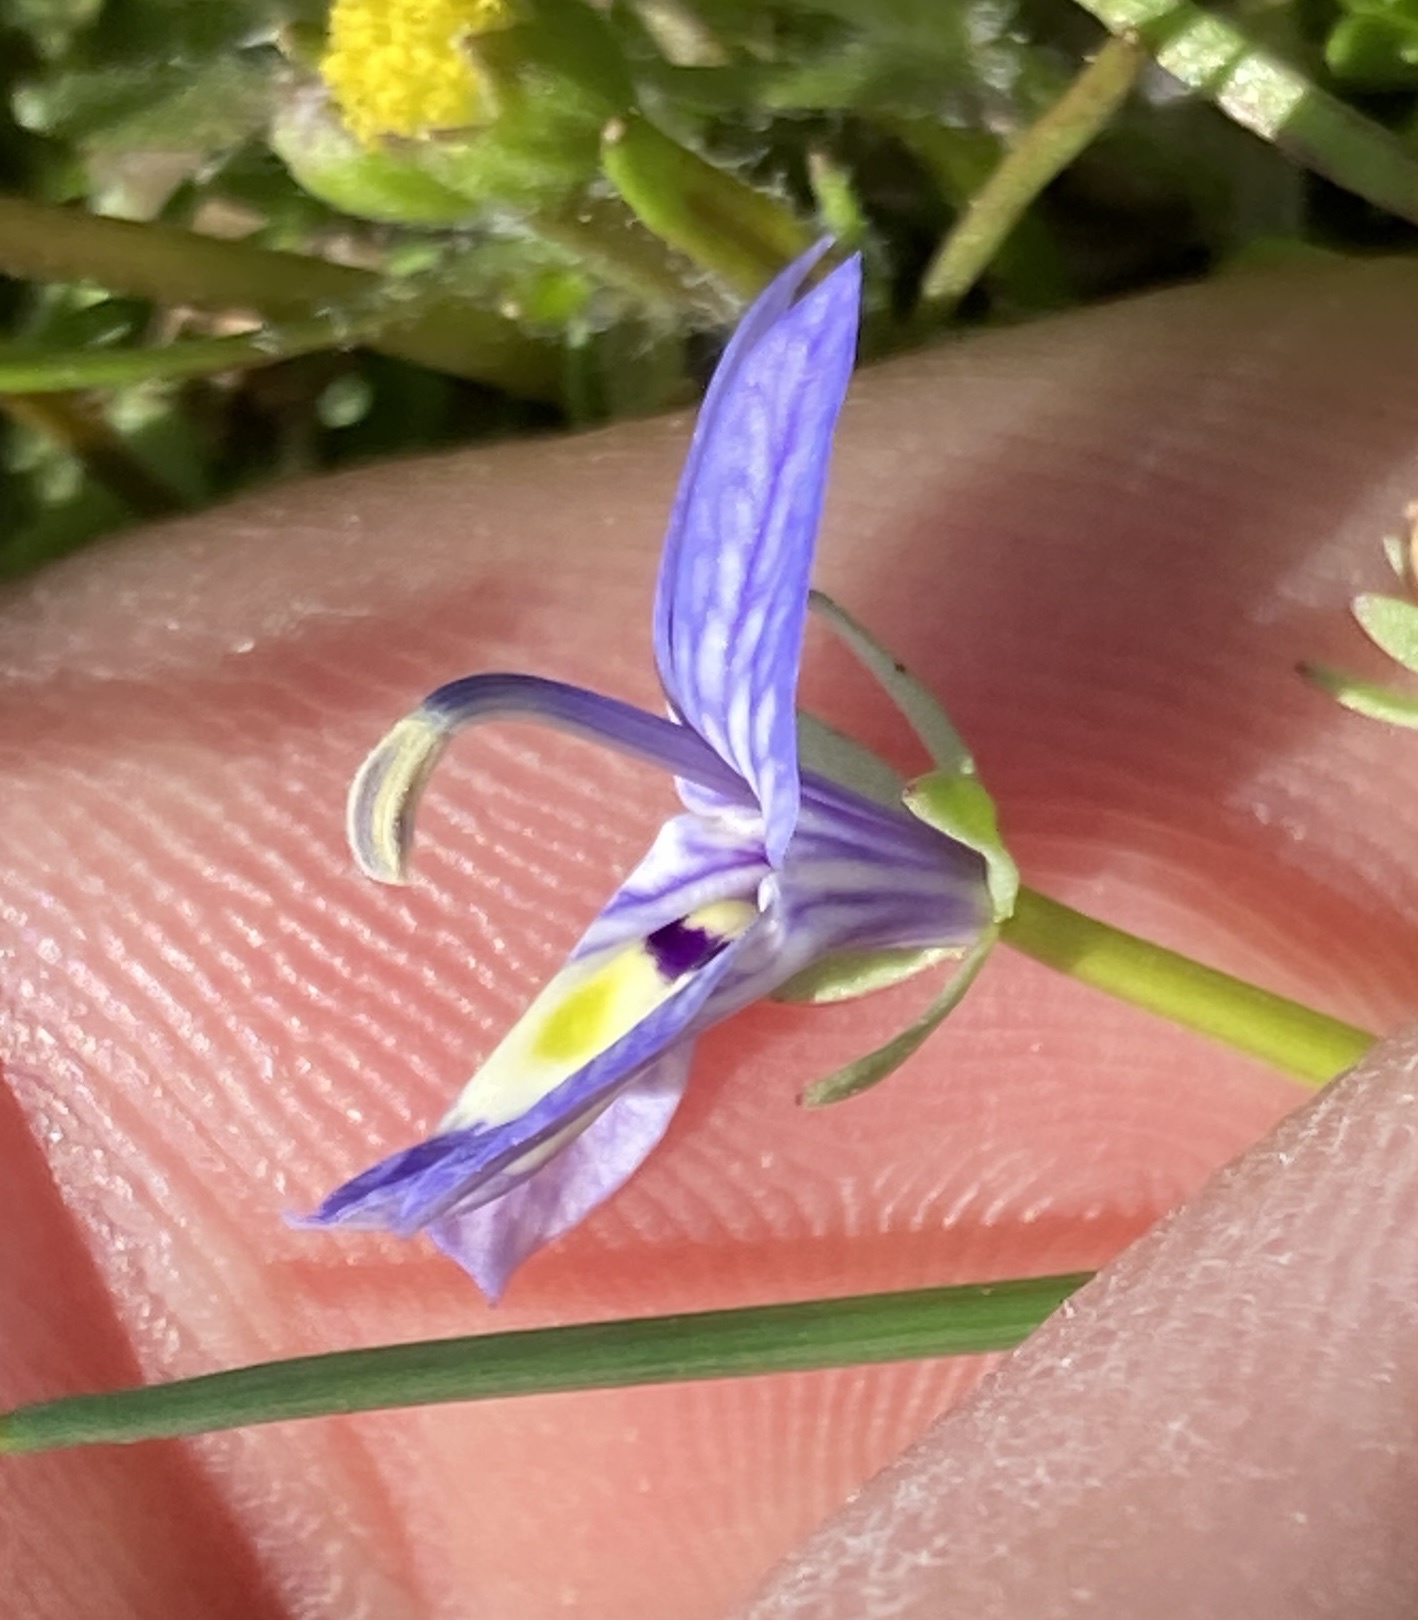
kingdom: Plantae
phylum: Tracheophyta
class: Magnoliopsida
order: Asterales
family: Campanulaceae
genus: Downingia
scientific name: Downingia insignis
